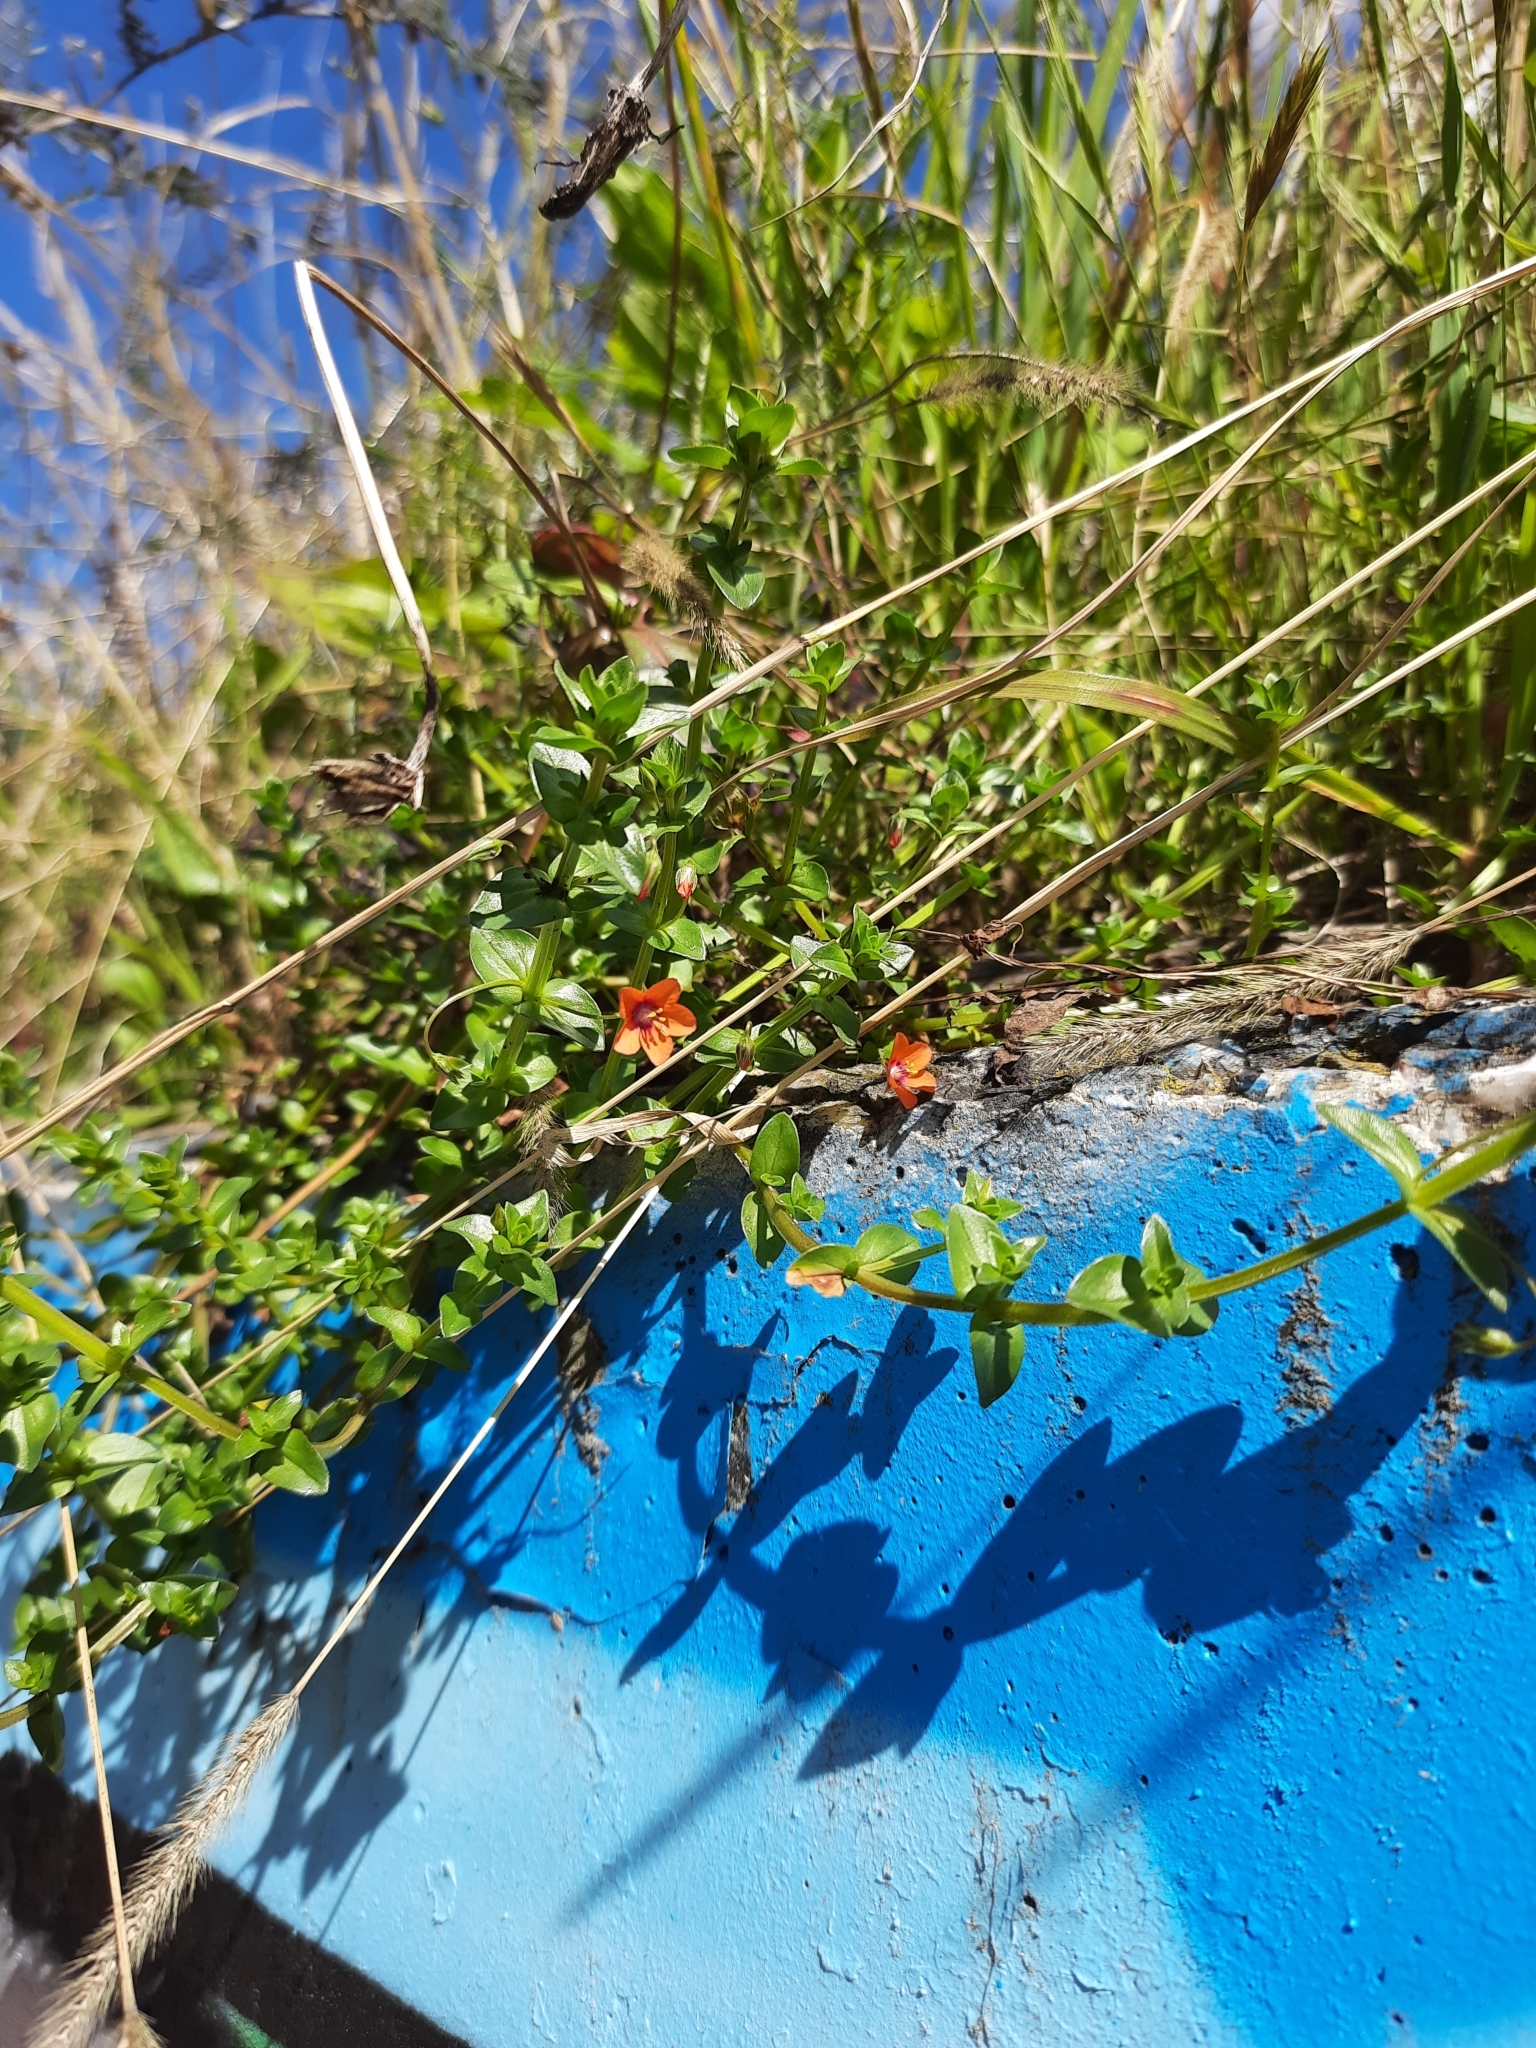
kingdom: Plantae
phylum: Tracheophyta
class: Magnoliopsida
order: Ericales
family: Primulaceae
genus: Lysimachia
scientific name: Lysimachia arvensis
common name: Scarlet pimpernel
